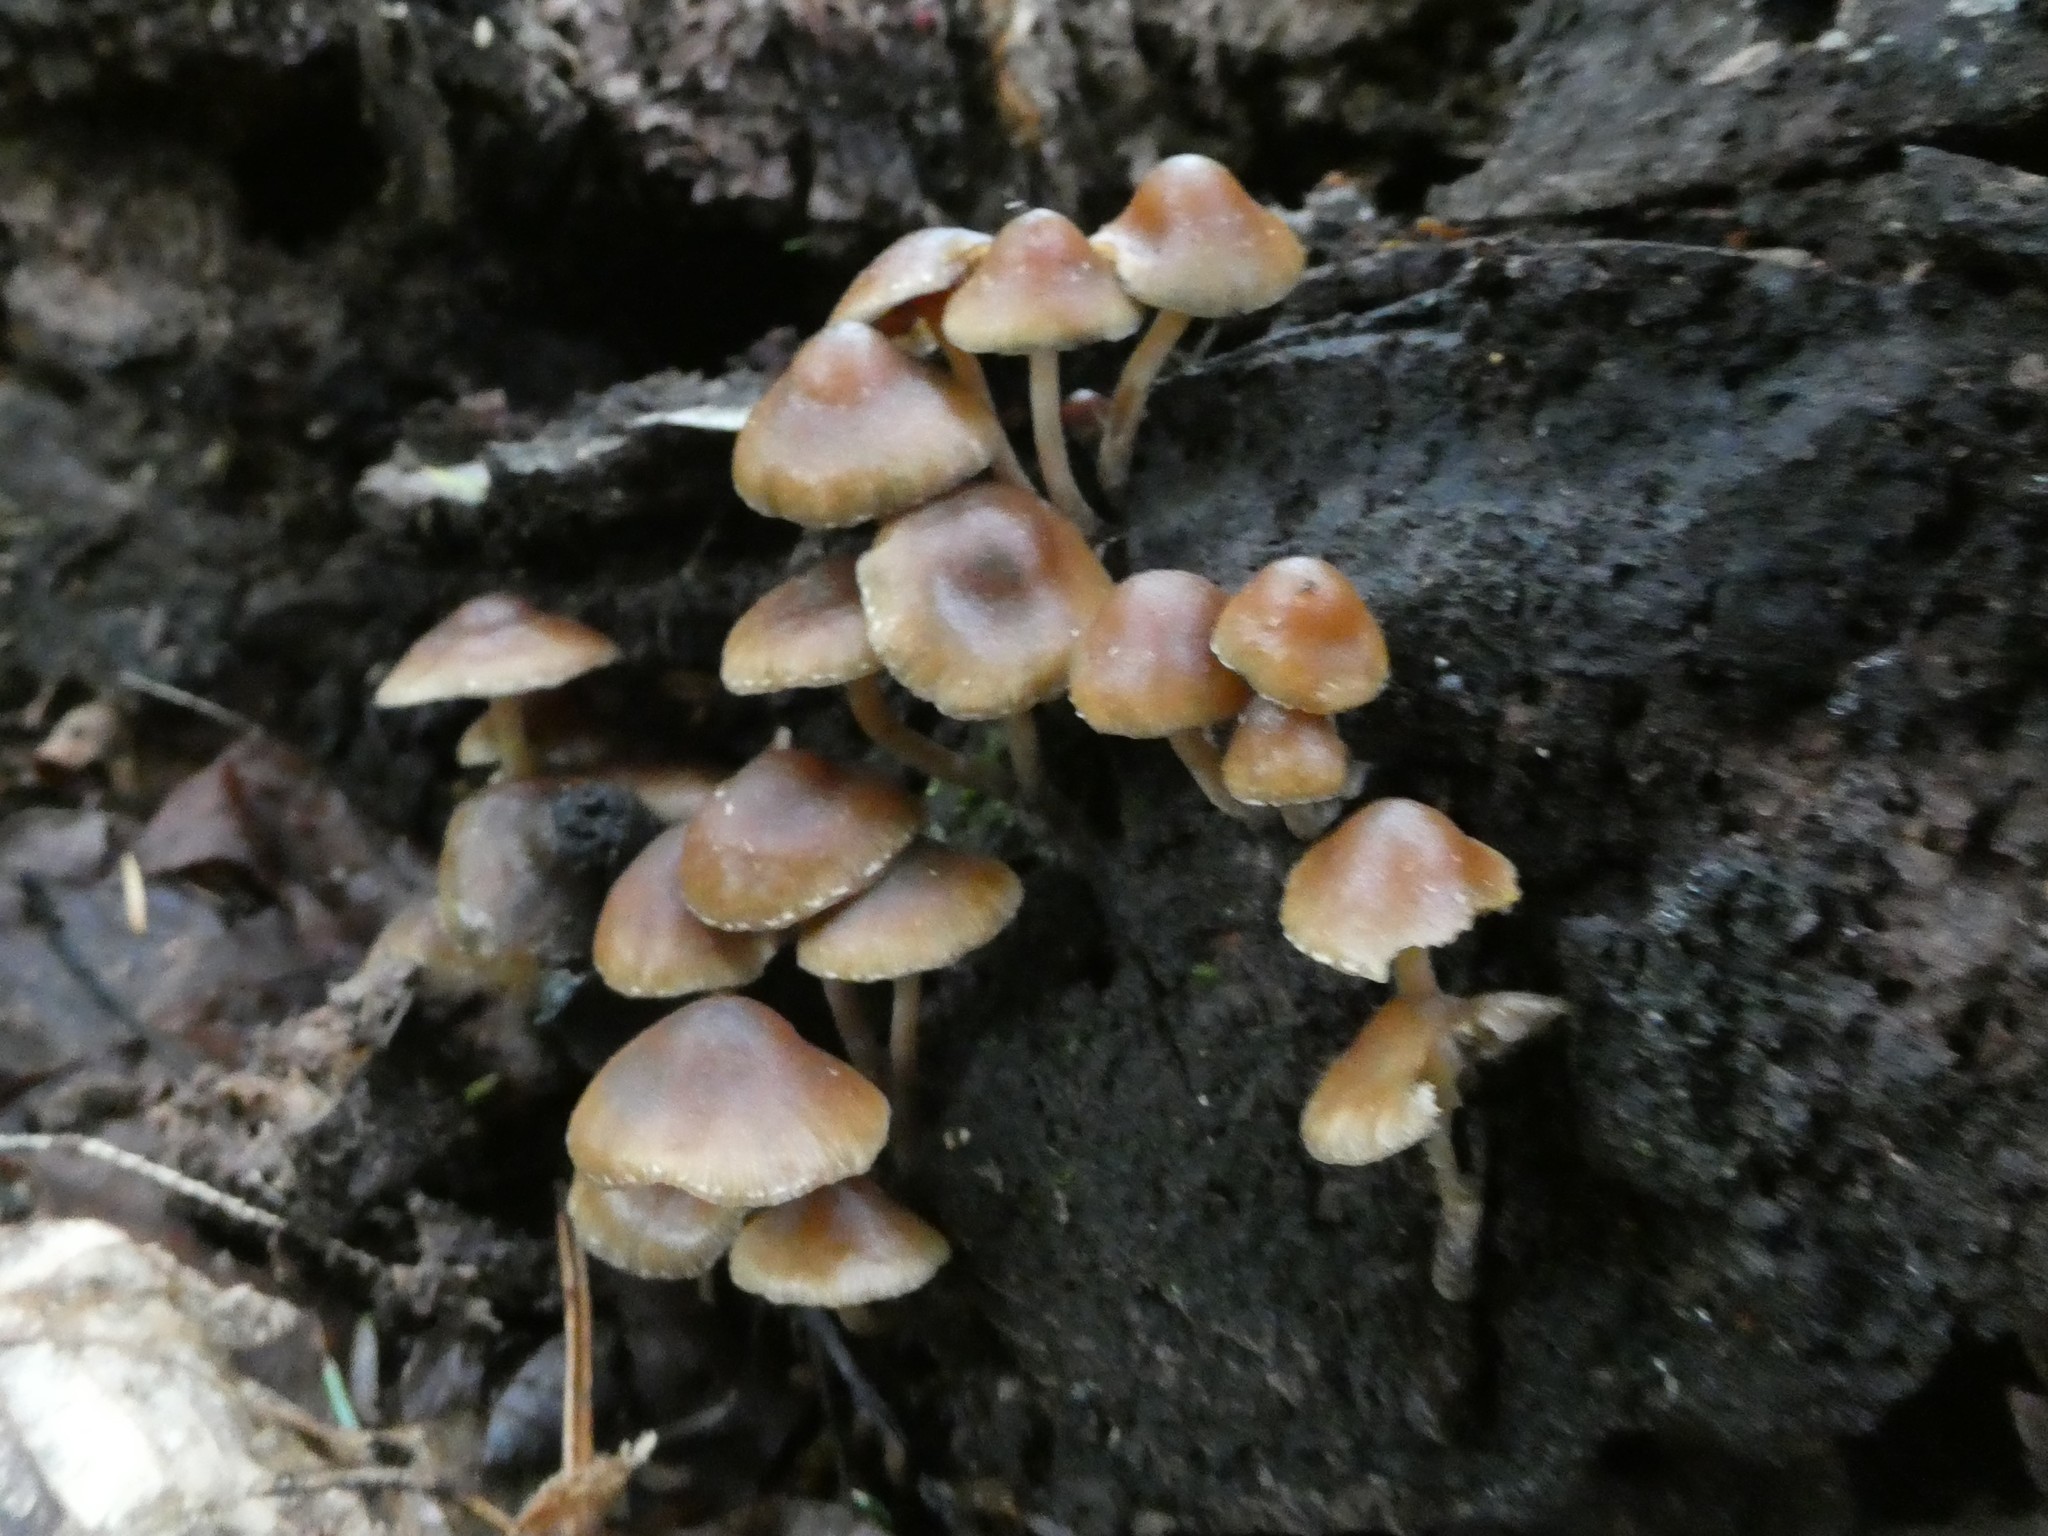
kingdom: Fungi
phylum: Basidiomycota
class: Agaricomycetes
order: Agaricales
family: Hymenogastraceae
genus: Psilocybe
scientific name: Psilocybe caerulipes
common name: Blue-foot
